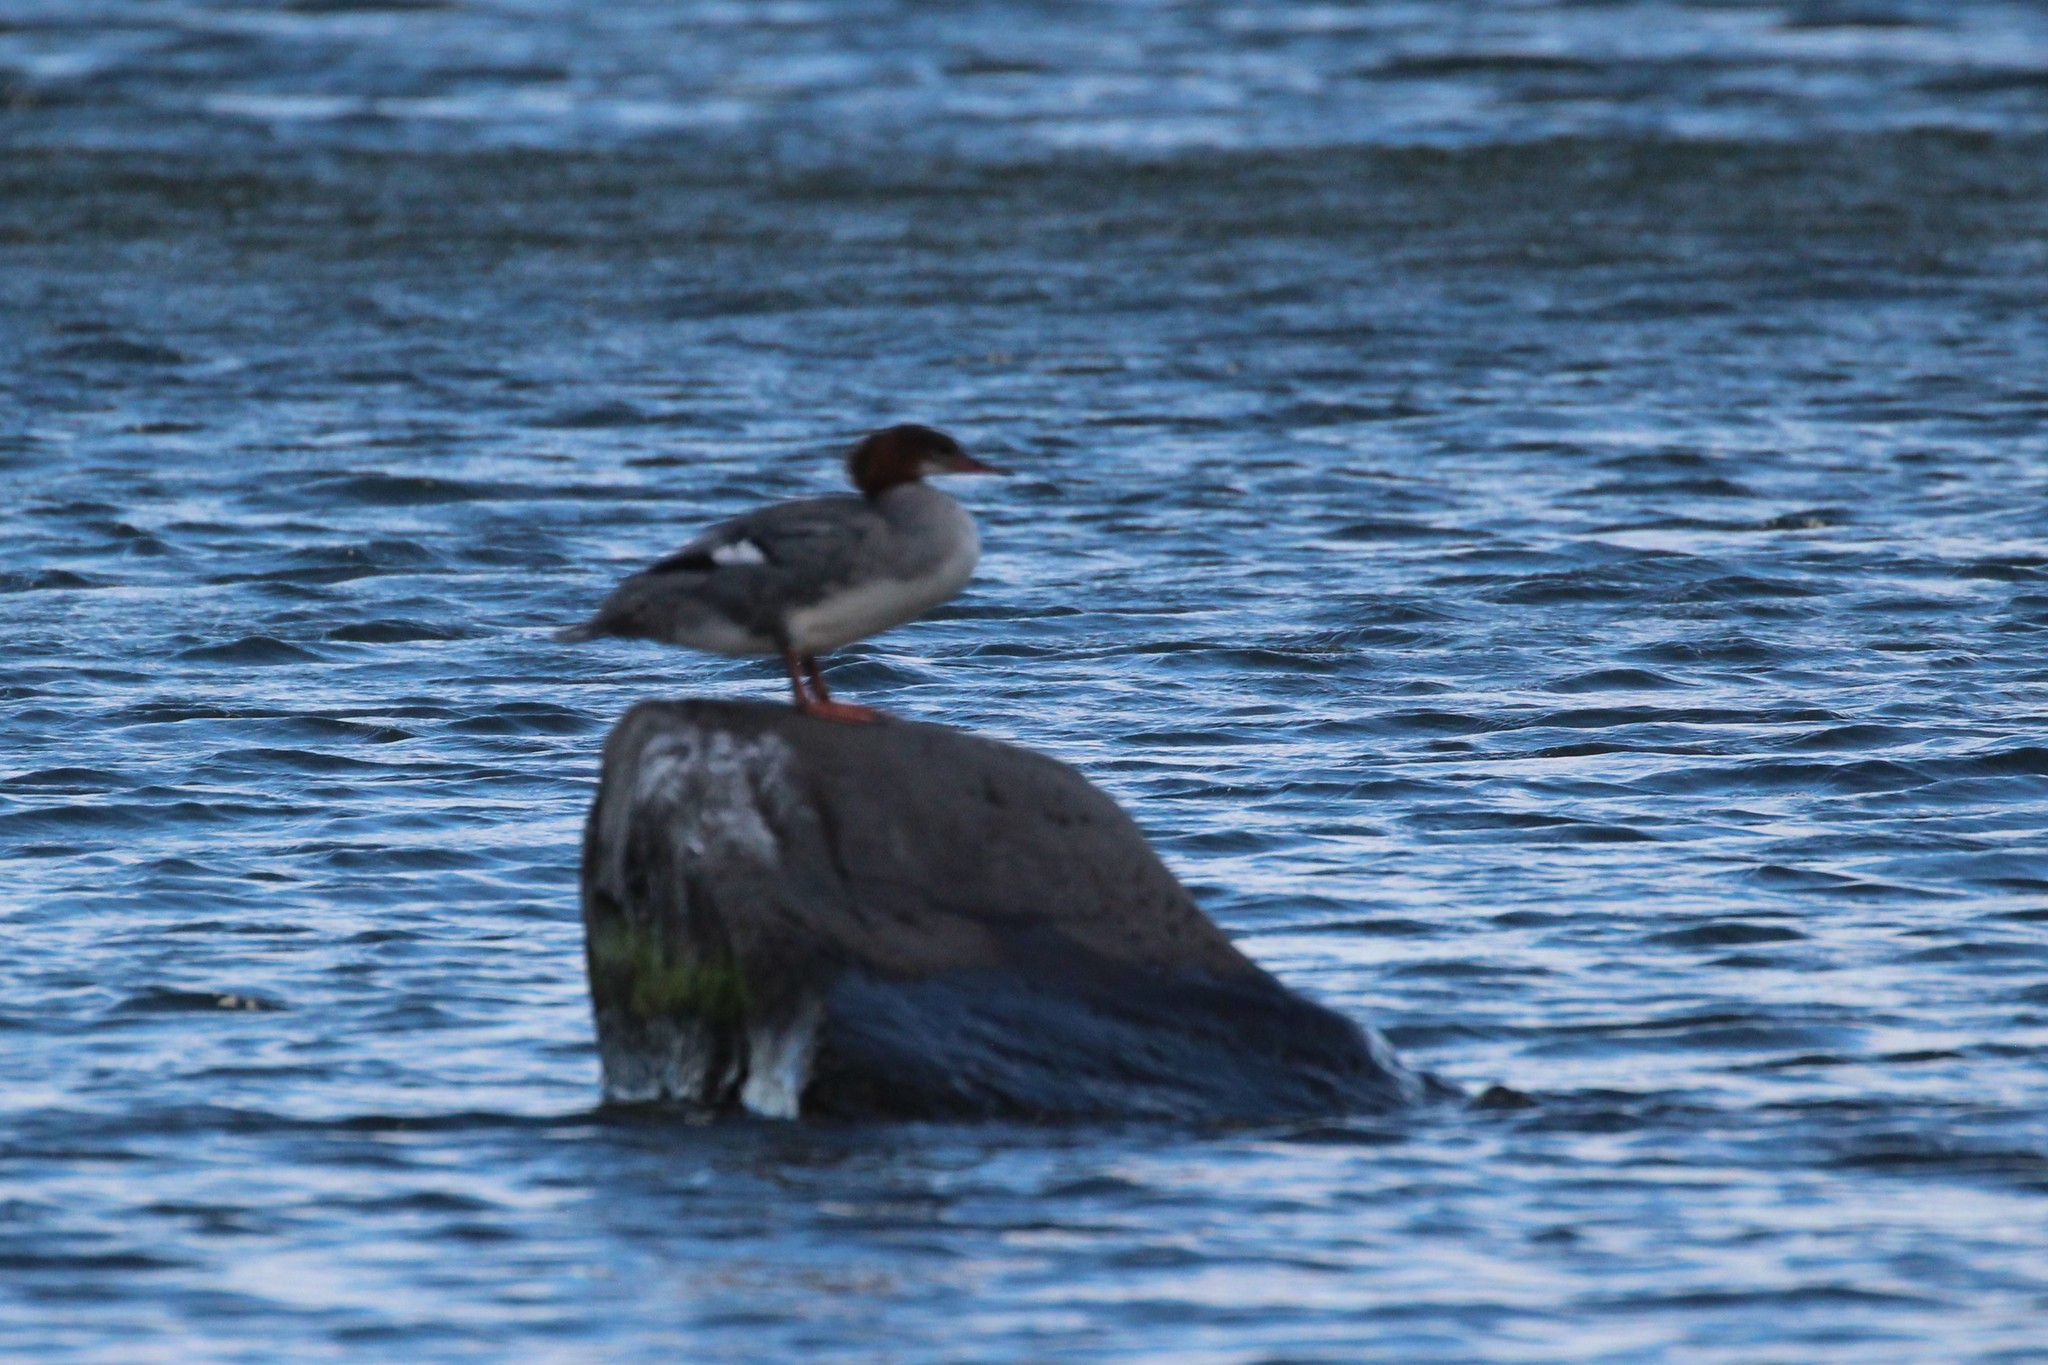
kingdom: Animalia
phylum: Chordata
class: Aves
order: Anseriformes
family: Anatidae
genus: Mergus
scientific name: Mergus merganser
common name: Common merganser
